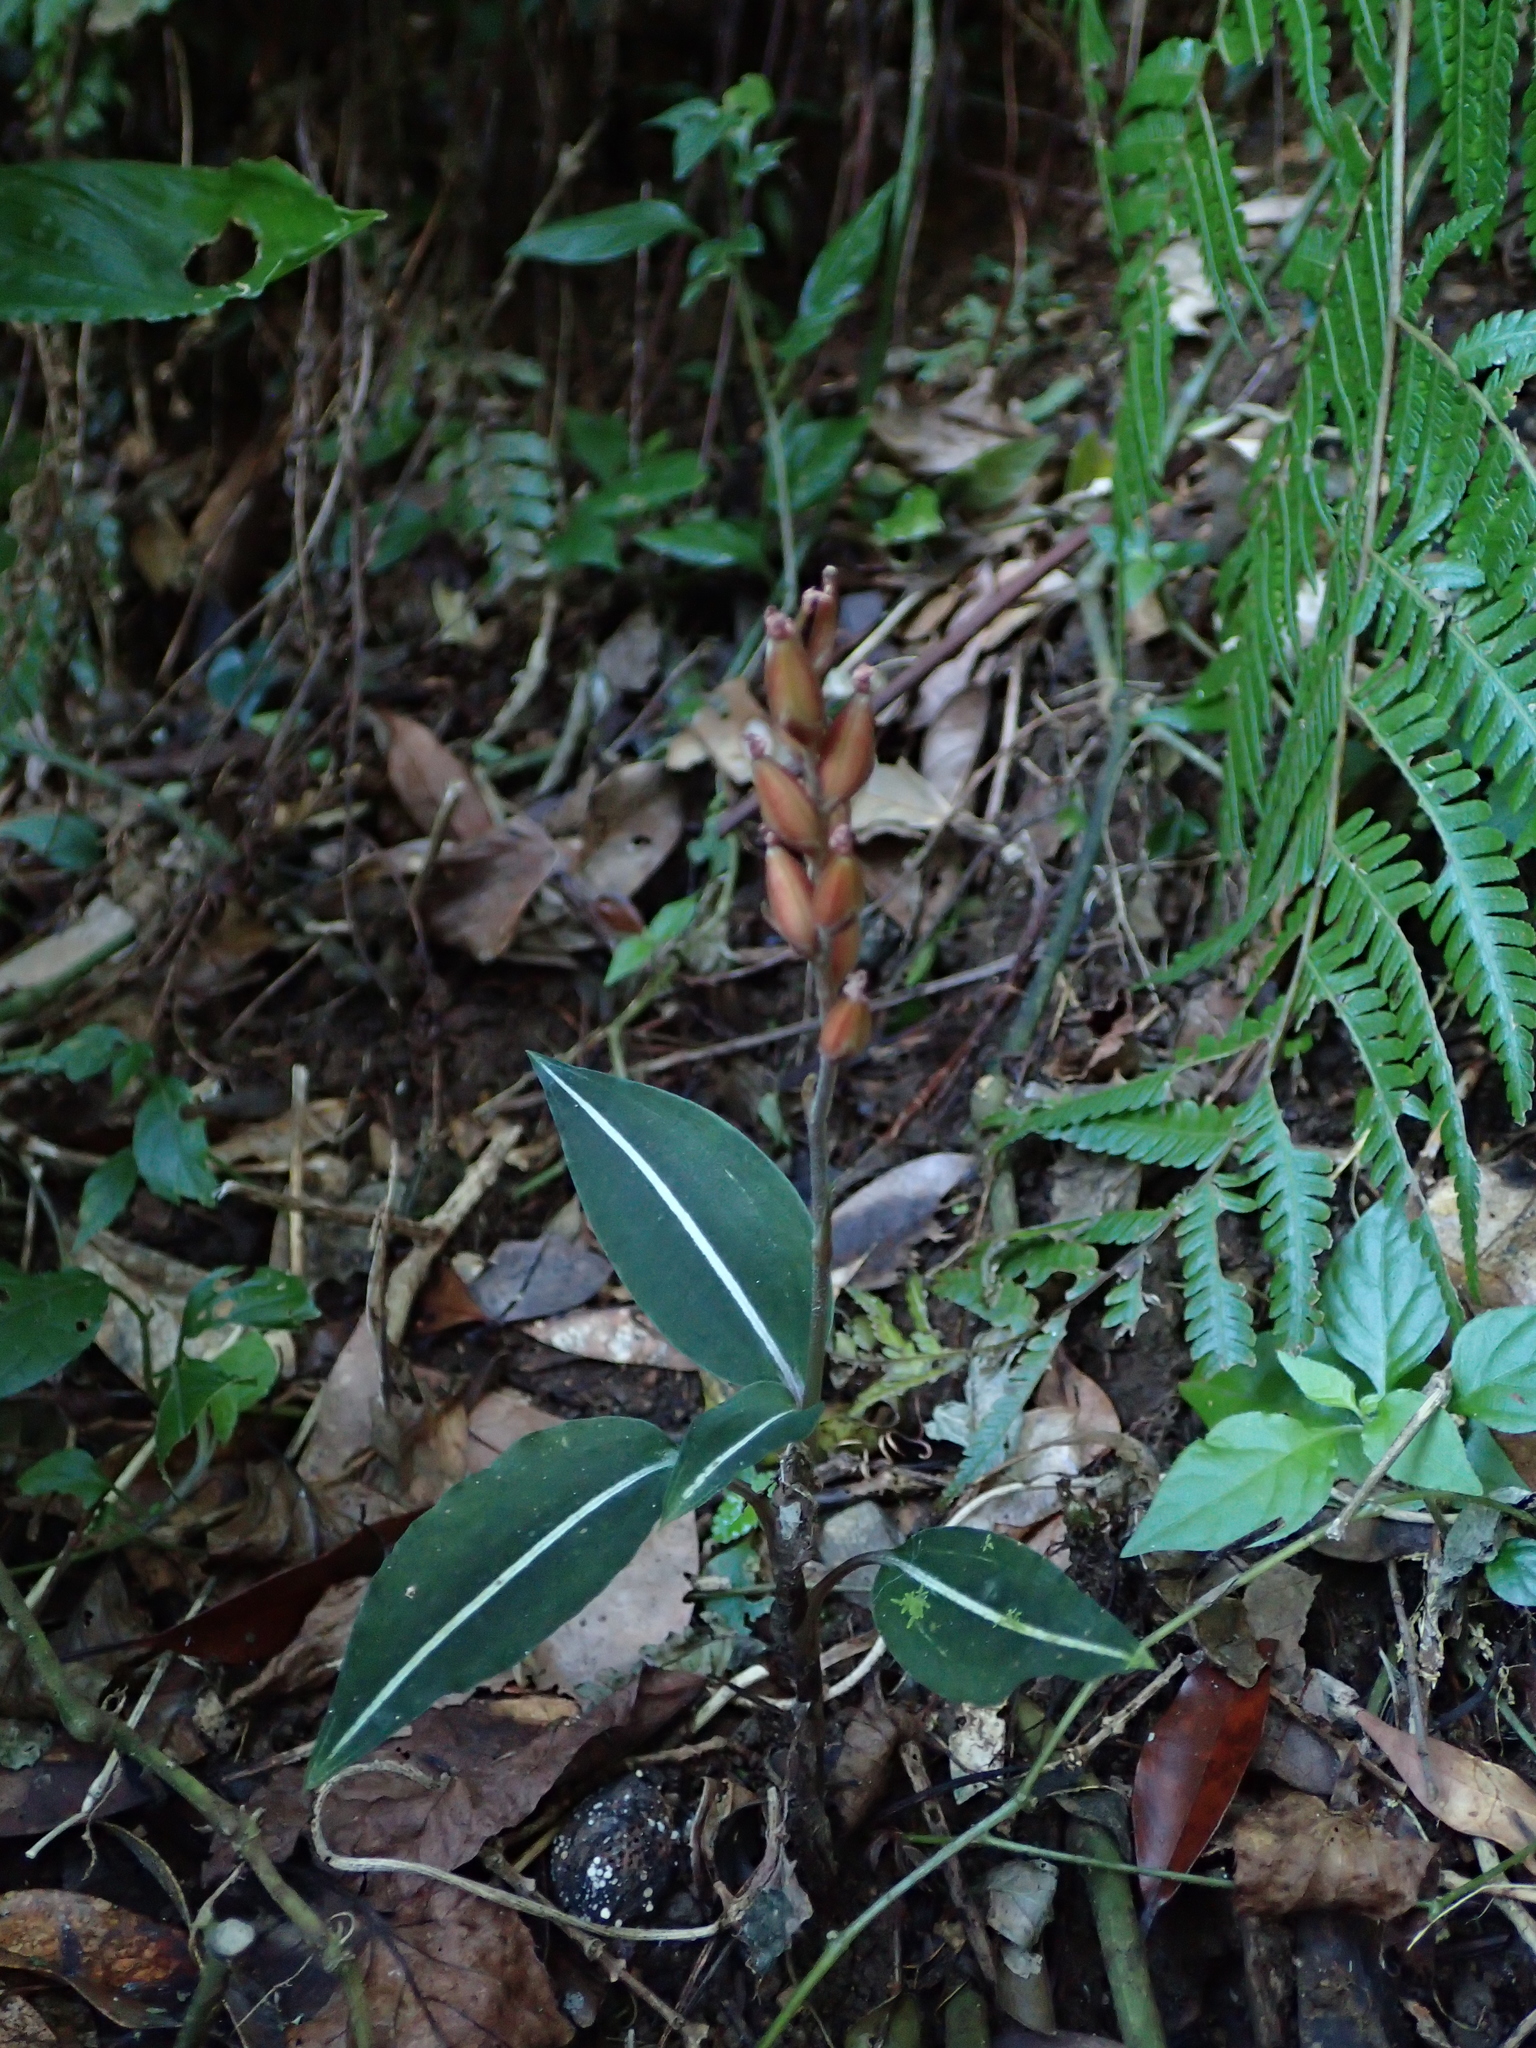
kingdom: Plantae
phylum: Tracheophyta
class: Liliopsida
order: Asparagales
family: Orchidaceae
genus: Rhomboda
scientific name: Rhomboda yakusimensis
